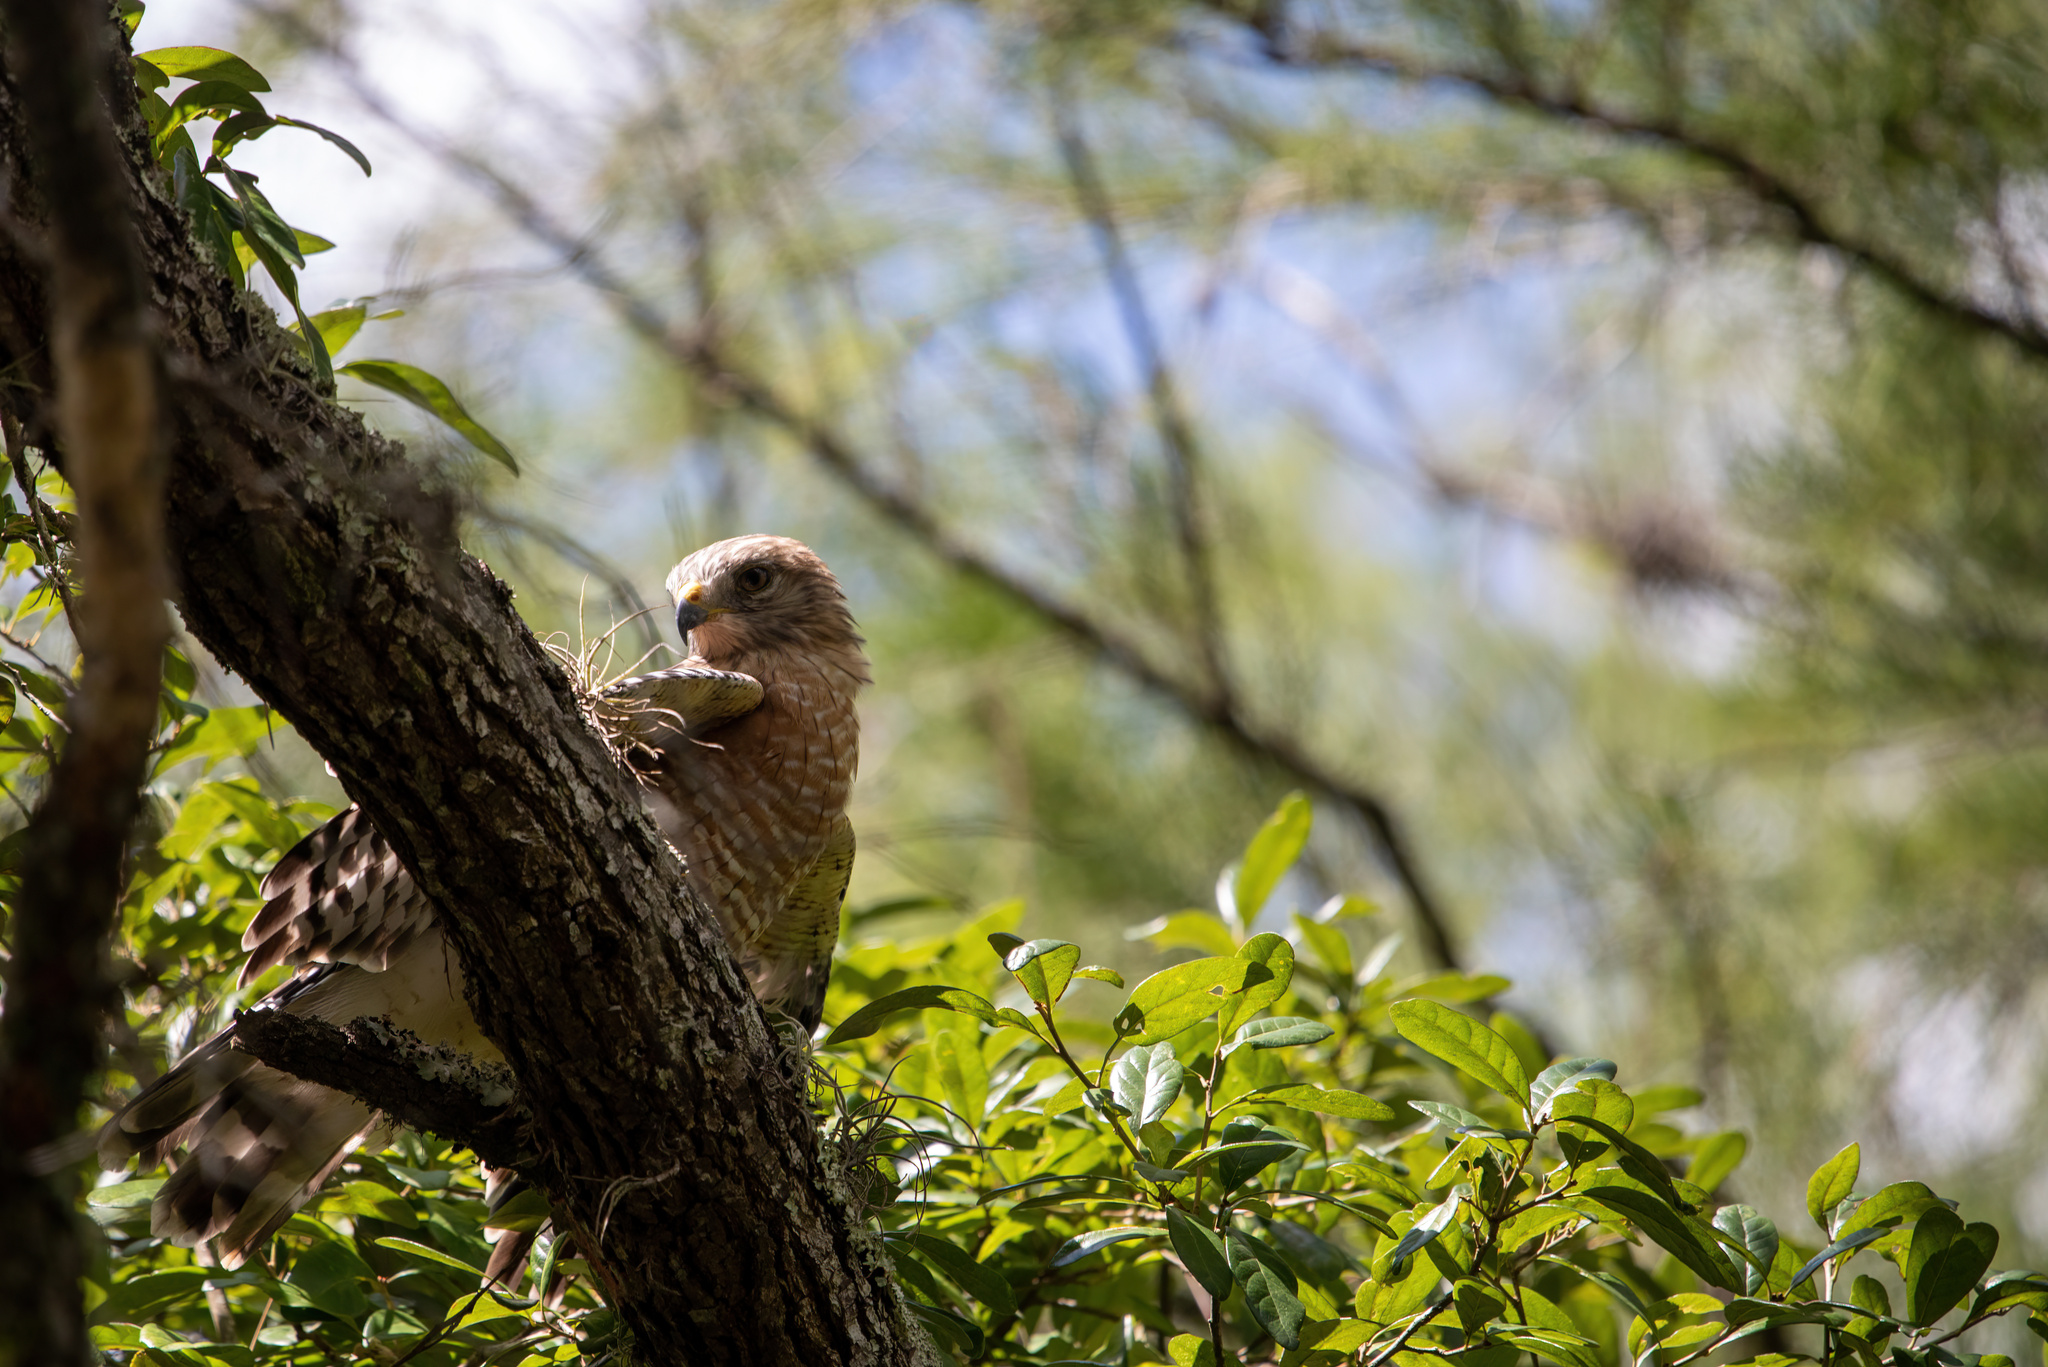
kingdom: Animalia
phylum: Chordata
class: Aves
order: Accipitriformes
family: Accipitridae
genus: Buteo
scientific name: Buteo lineatus
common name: Red-shouldered hawk
